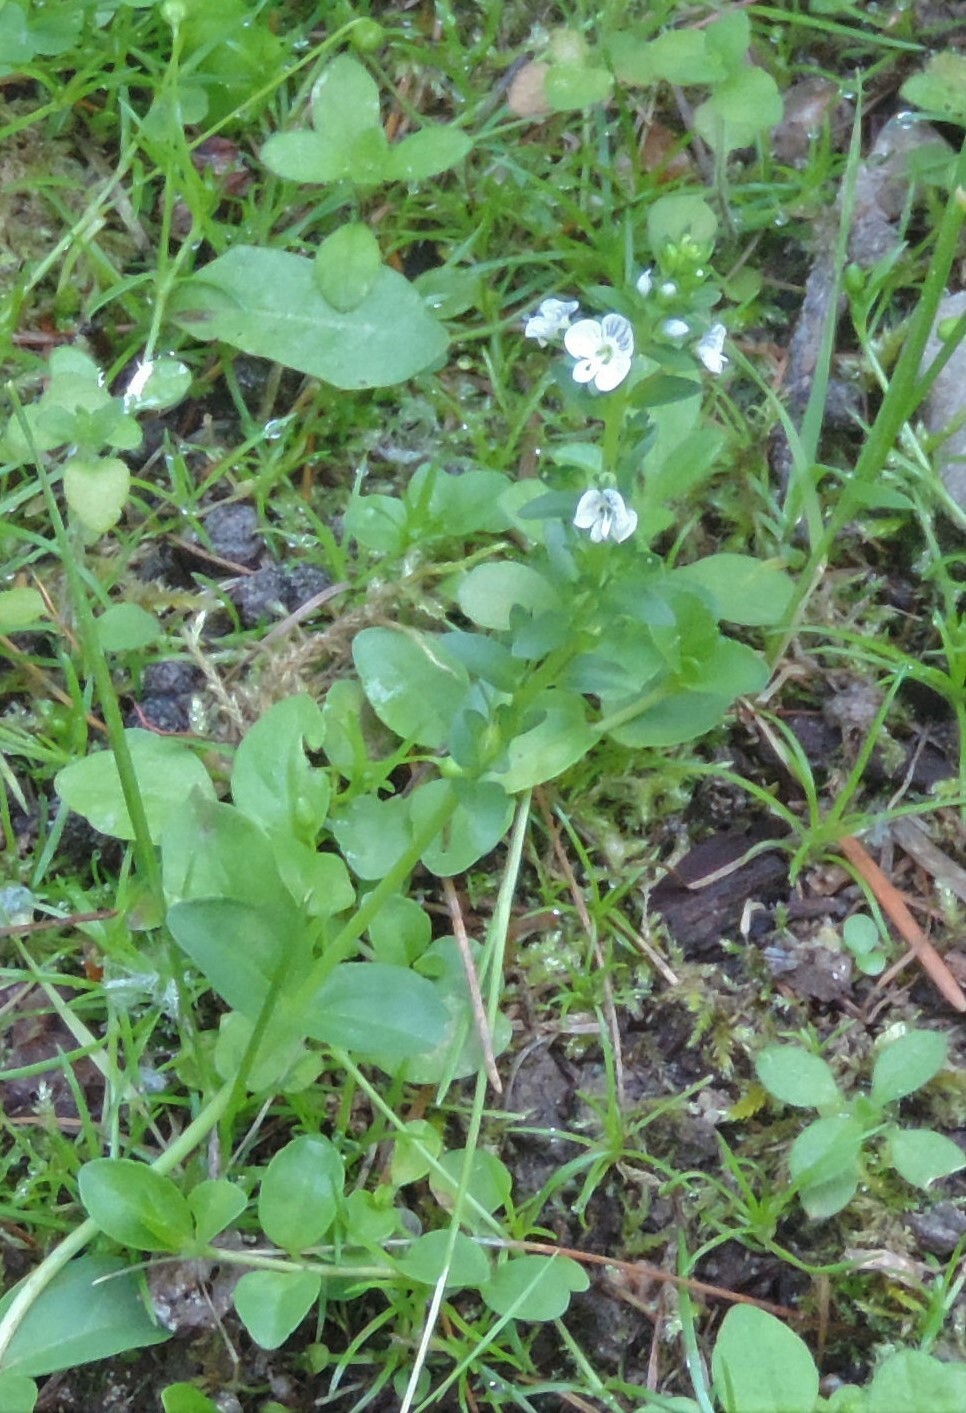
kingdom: Plantae
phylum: Tracheophyta
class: Magnoliopsida
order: Lamiales
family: Plantaginaceae
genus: Veronica
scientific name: Veronica serpyllifolia
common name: Thyme-leaved speedwell
